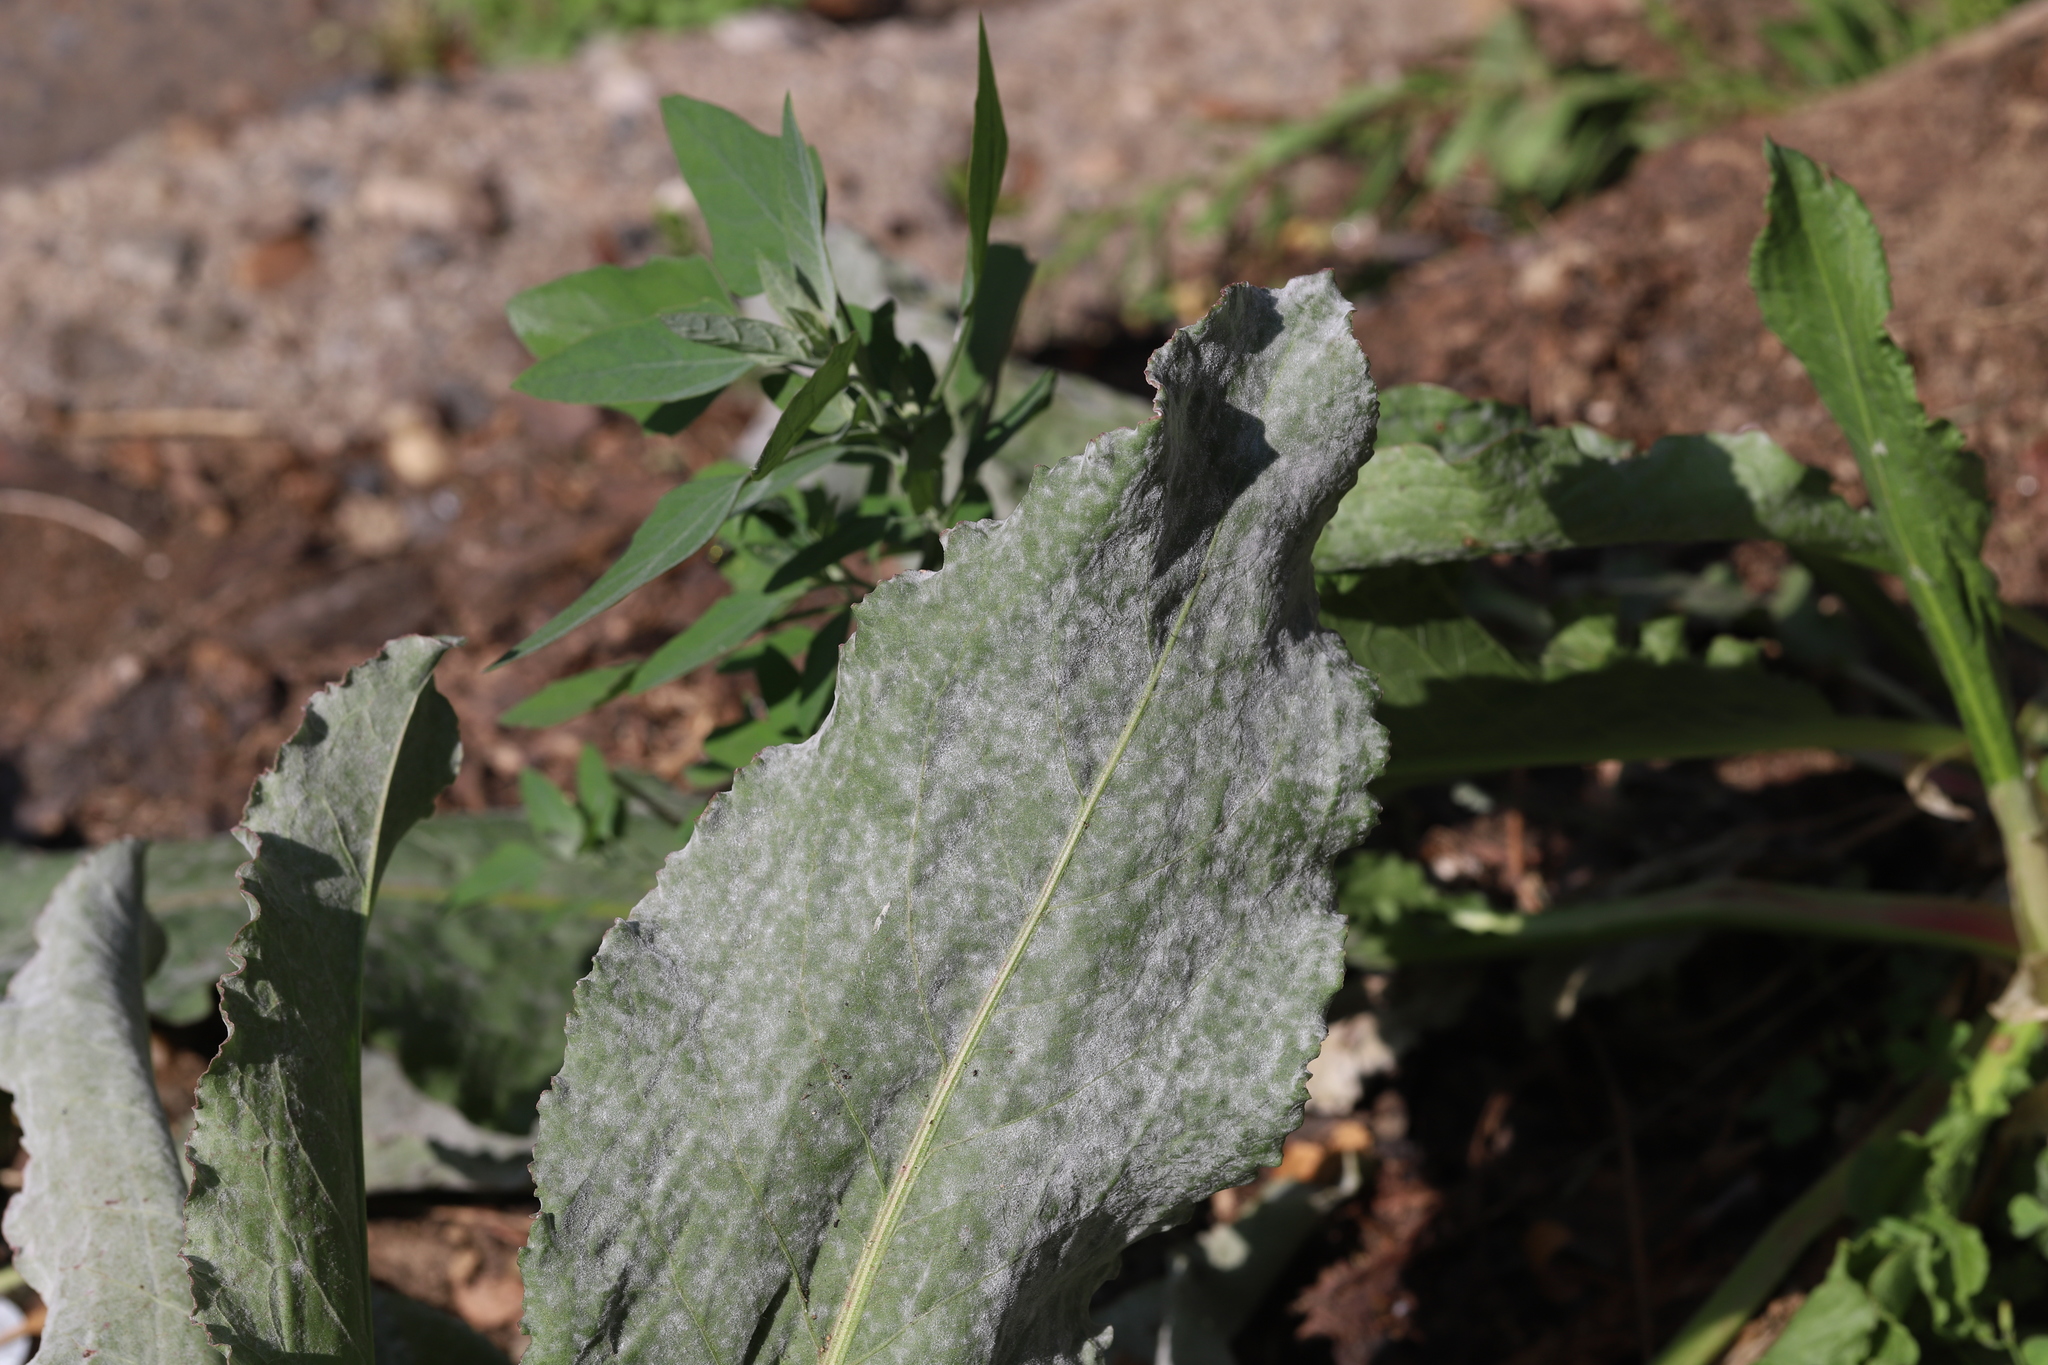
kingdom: Fungi
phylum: Ascomycota
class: Leotiomycetes
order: Helotiales
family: Erysiphaceae
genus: Erysiphe
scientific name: Erysiphe polygoni
